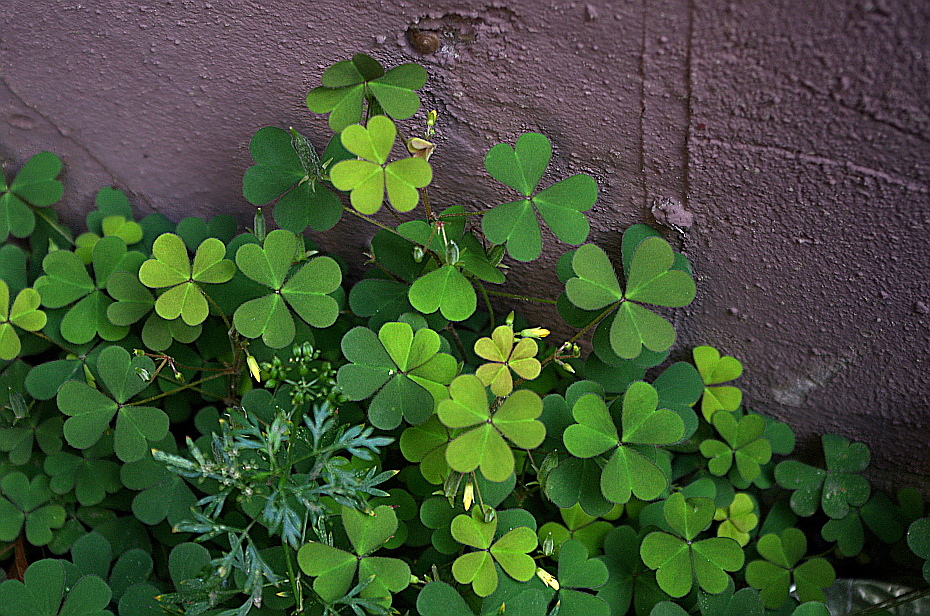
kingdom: Plantae
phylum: Tracheophyta
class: Magnoliopsida
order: Oxalidales
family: Oxalidaceae
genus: Oxalis
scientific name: Oxalis corniculata
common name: Procumbent yellow-sorrel
